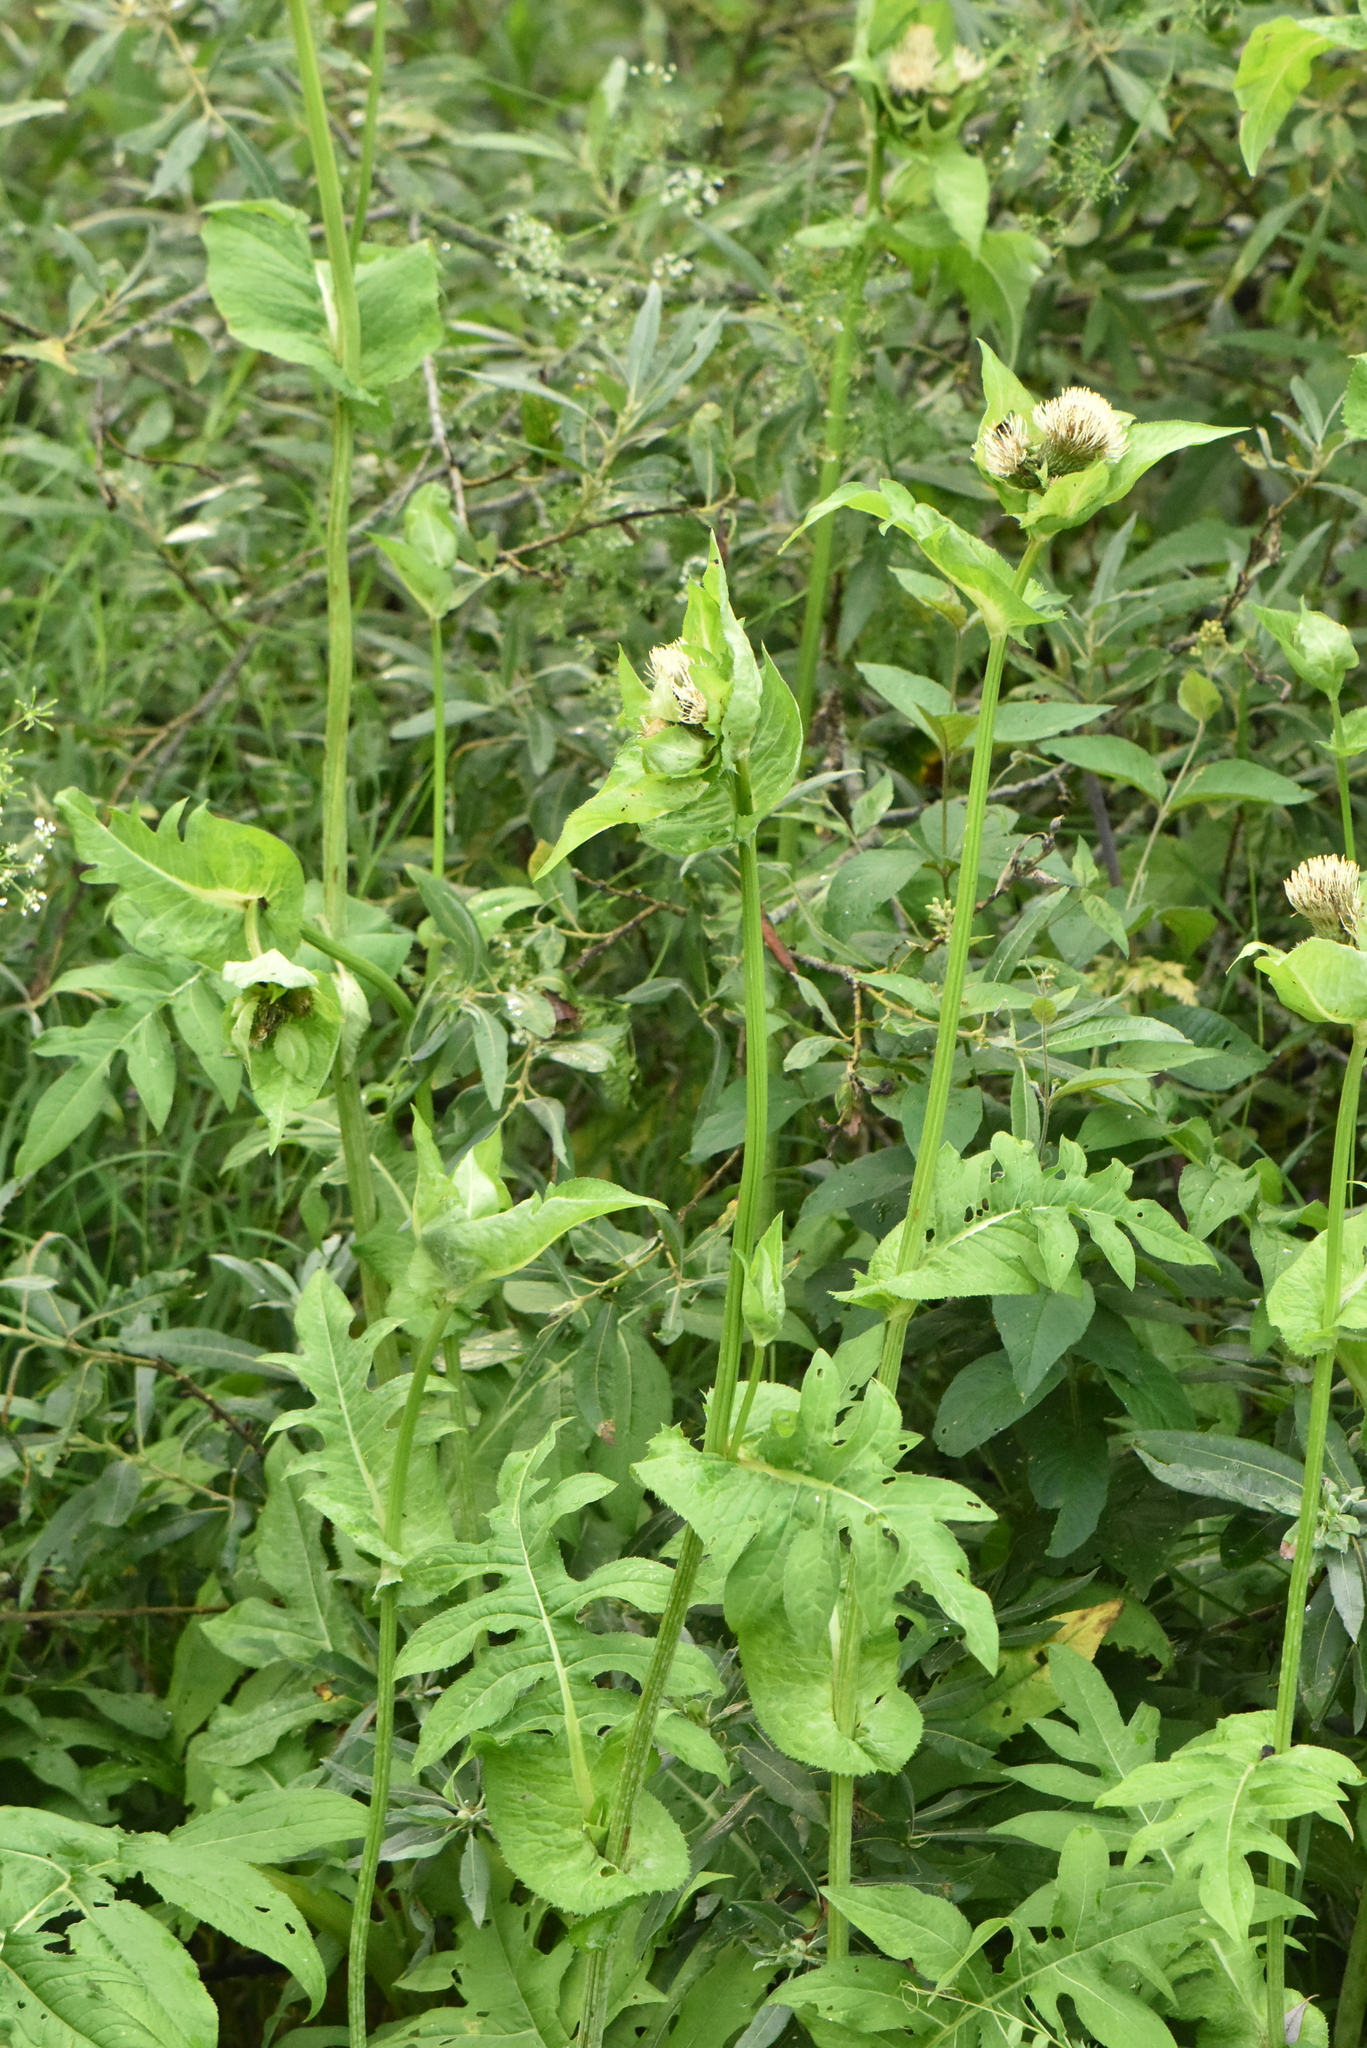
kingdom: Plantae
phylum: Tracheophyta
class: Magnoliopsida
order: Asterales
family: Asteraceae
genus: Cirsium
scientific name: Cirsium oleraceum
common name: Cabbage thistle
